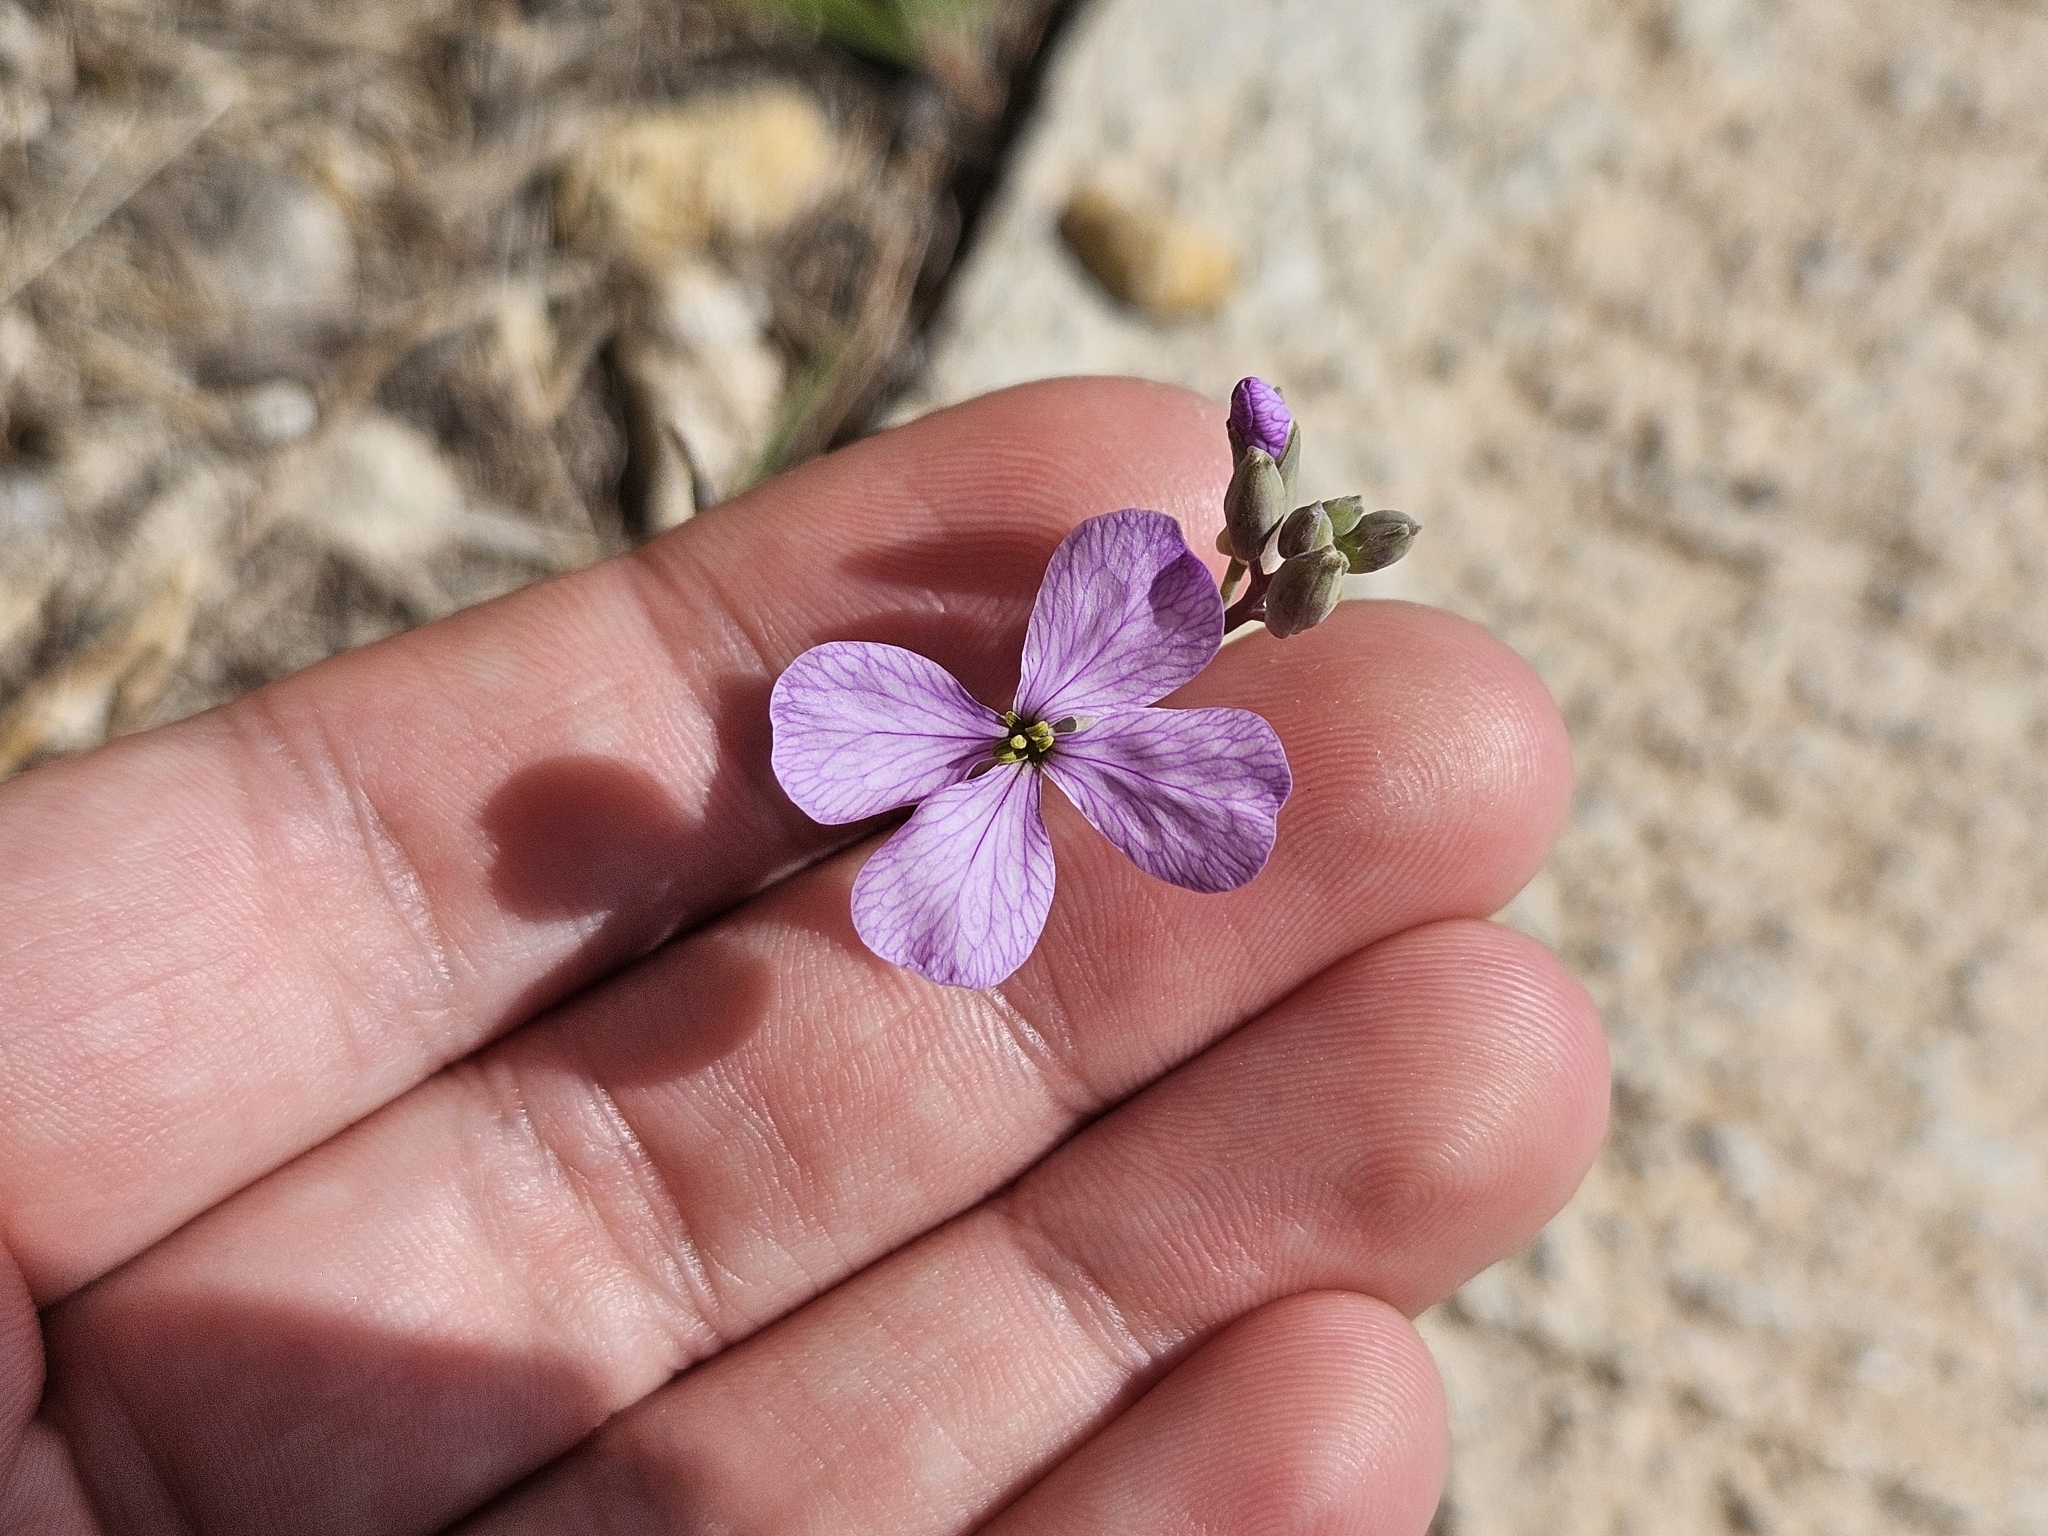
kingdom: Plantae
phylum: Tracheophyta
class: Magnoliopsida
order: Brassicales
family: Brassicaceae
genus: Moricandia
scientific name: Moricandia arvensis
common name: Purple mistress
